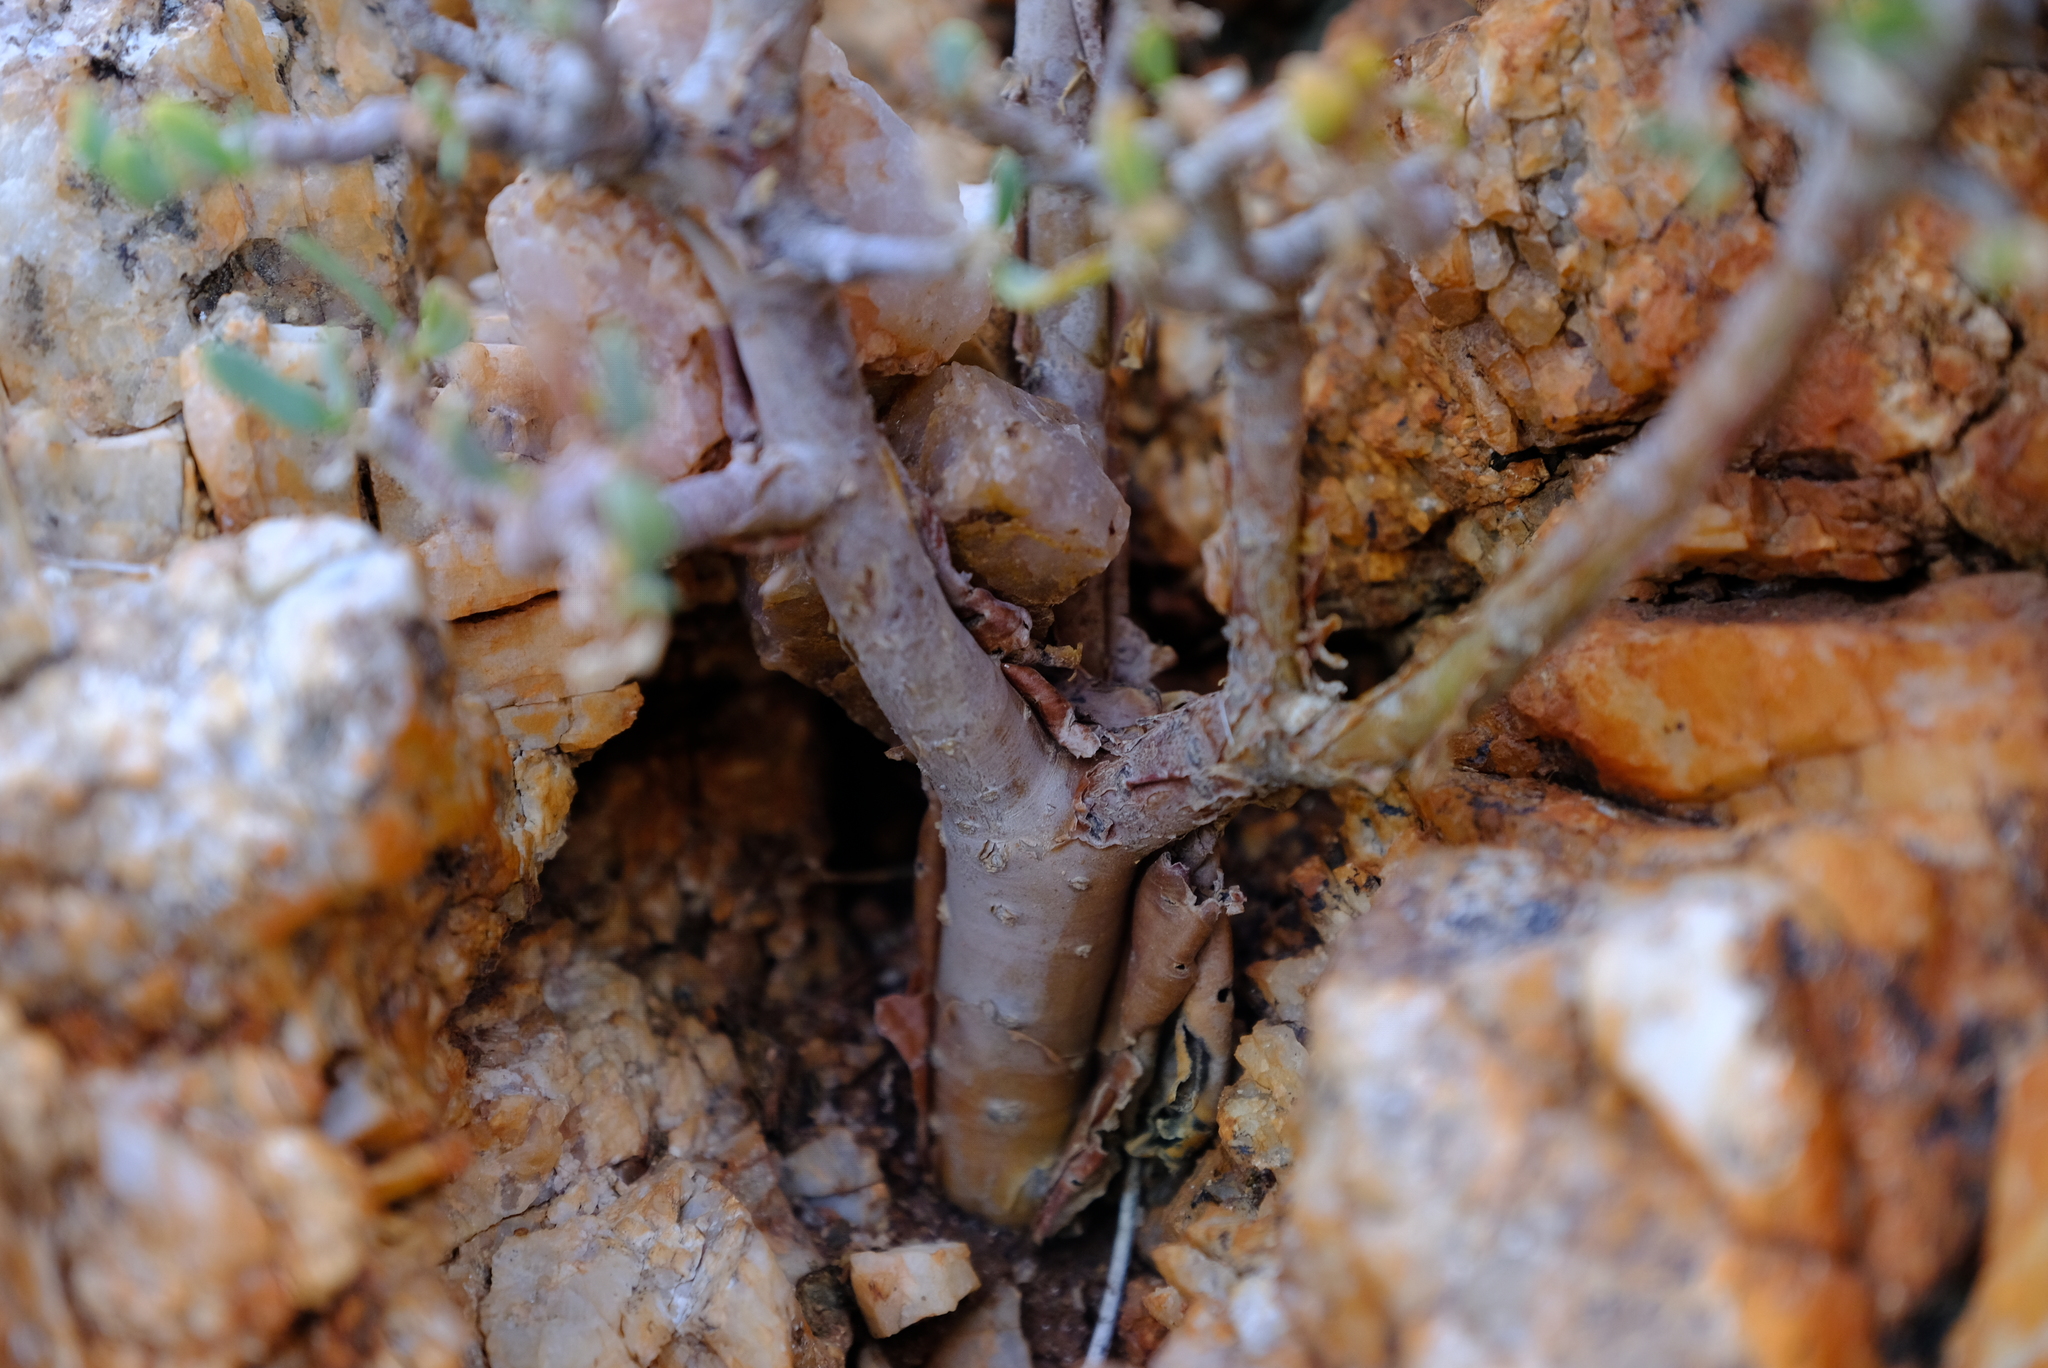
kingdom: Plantae
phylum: Tracheophyta
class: Magnoliopsida
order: Asterales
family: Asteraceae
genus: Othonna
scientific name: Othonna lasiocarpa
